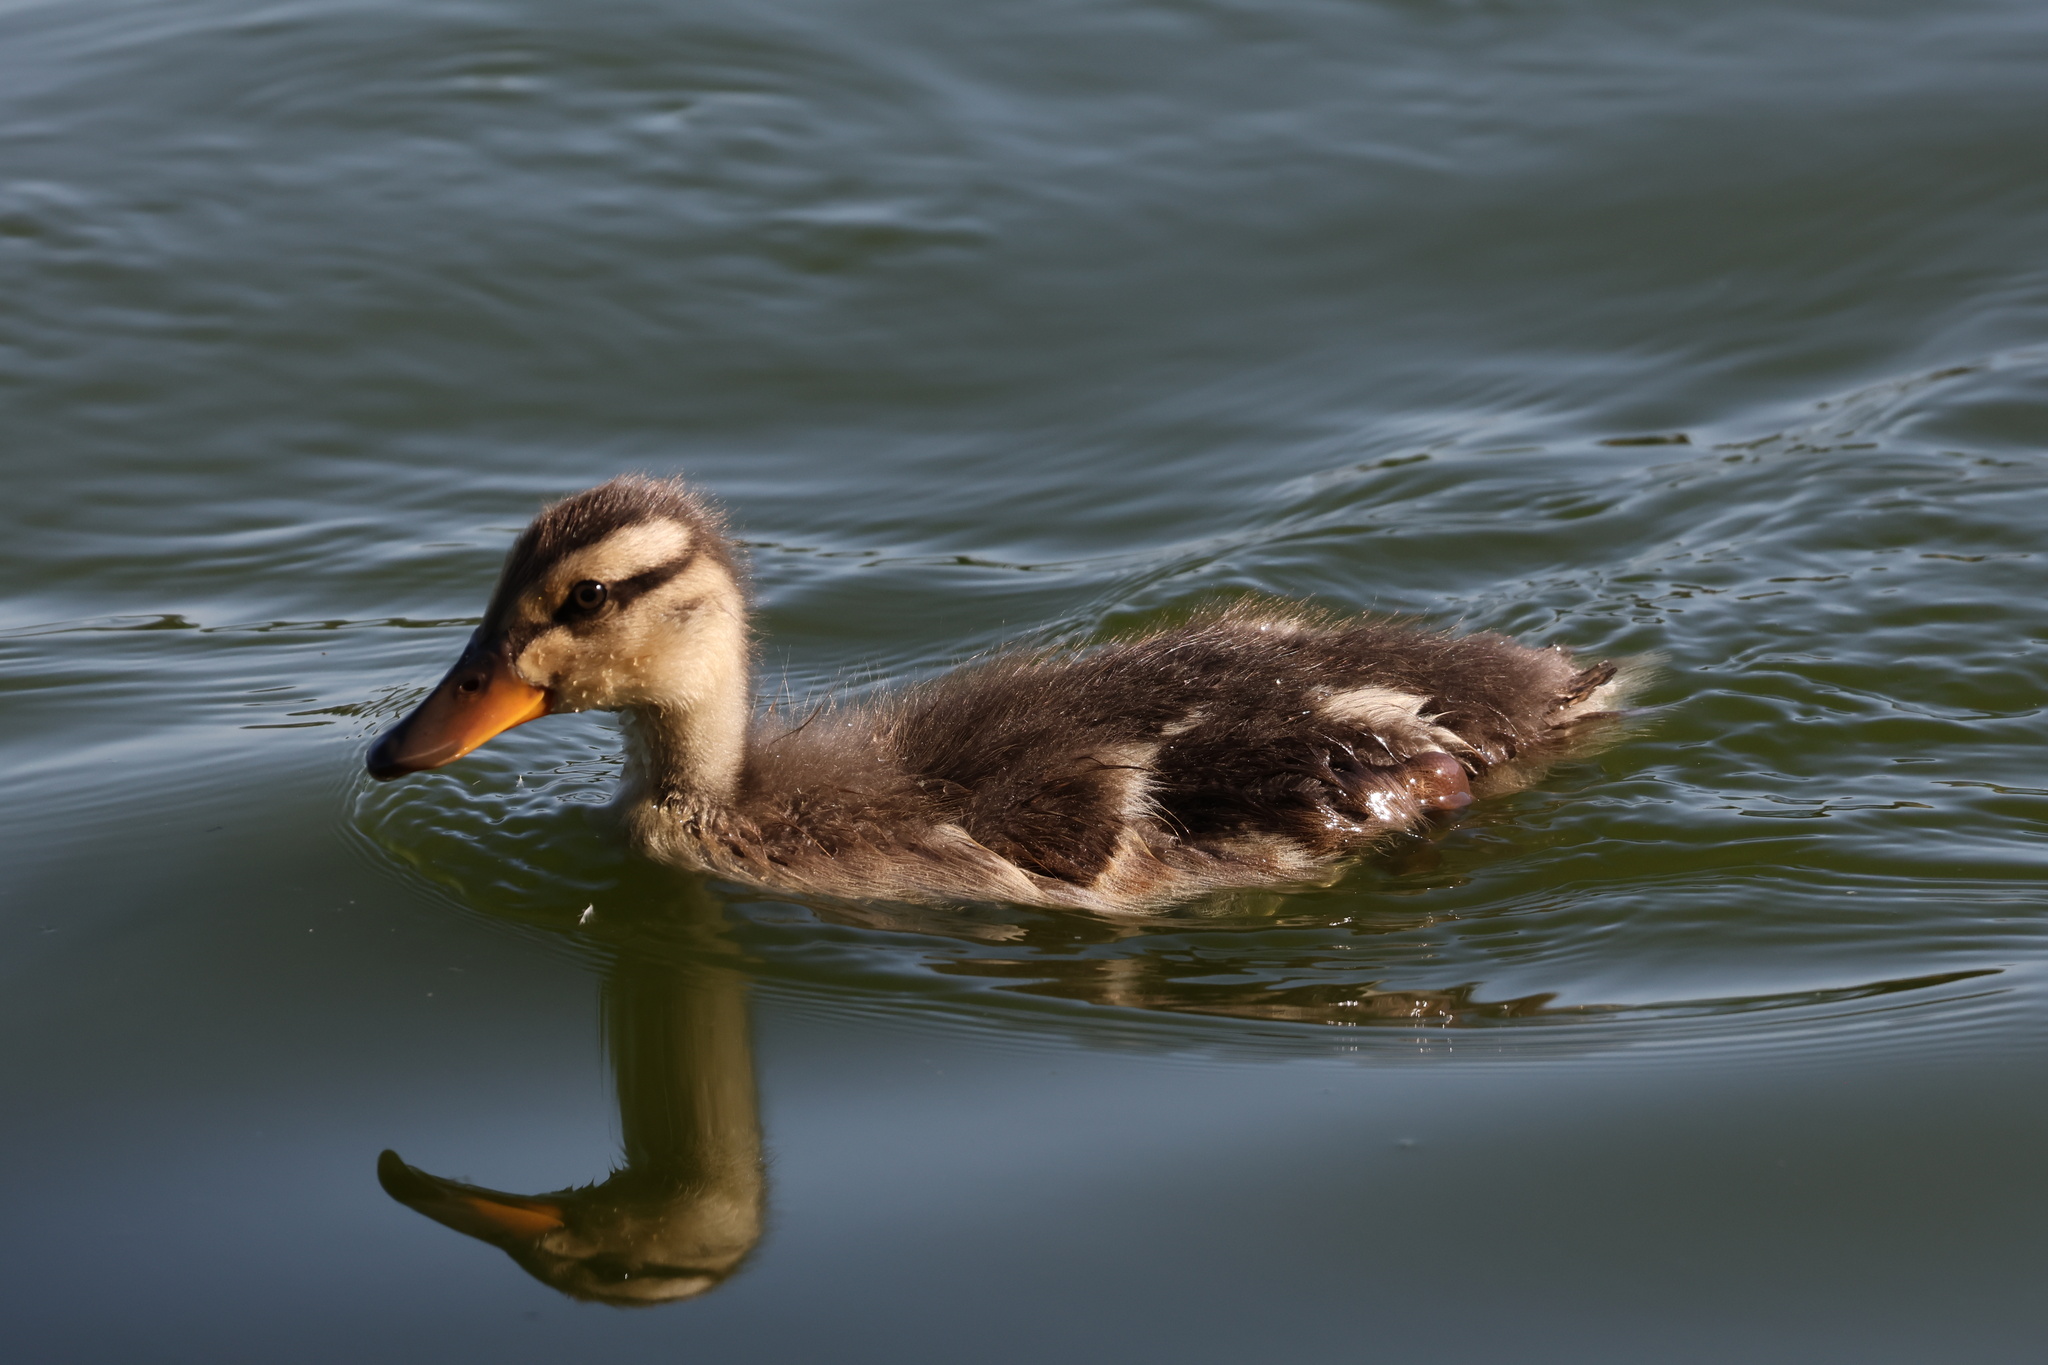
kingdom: Animalia
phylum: Chordata
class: Aves
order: Anseriformes
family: Anatidae
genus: Anas
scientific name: Anas platyrhynchos
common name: Mallard
